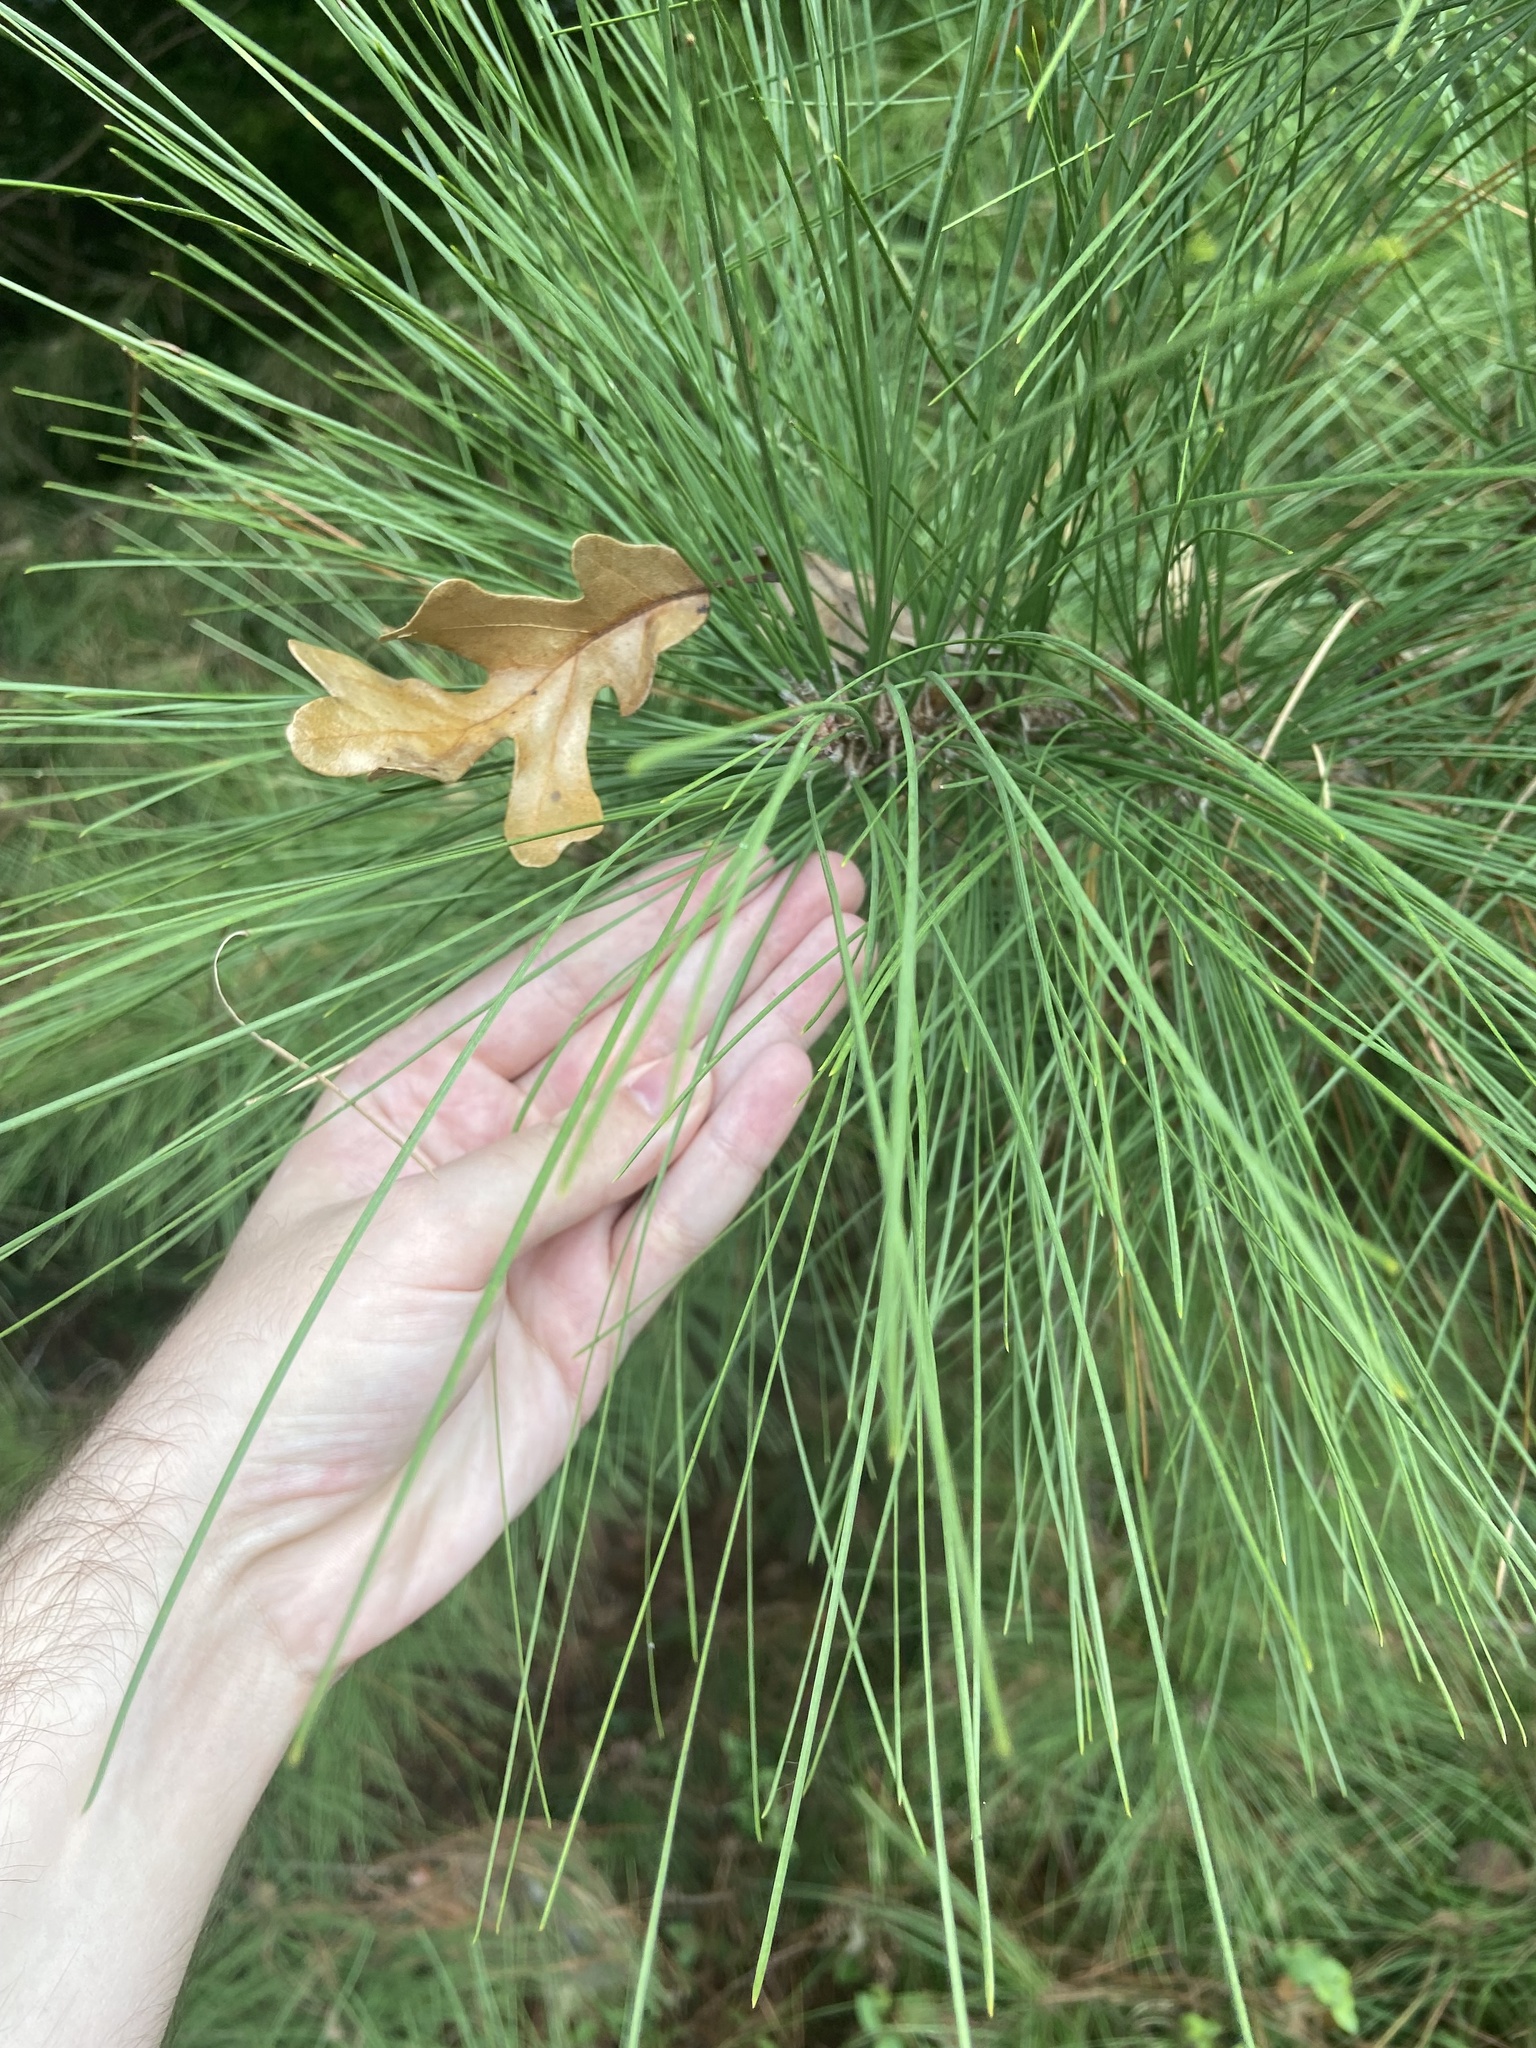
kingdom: Plantae
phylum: Tracheophyta
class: Pinopsida
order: Pinales
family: Pinaceae
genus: Pinus
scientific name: Pinus taeda
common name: Loblolly pine
